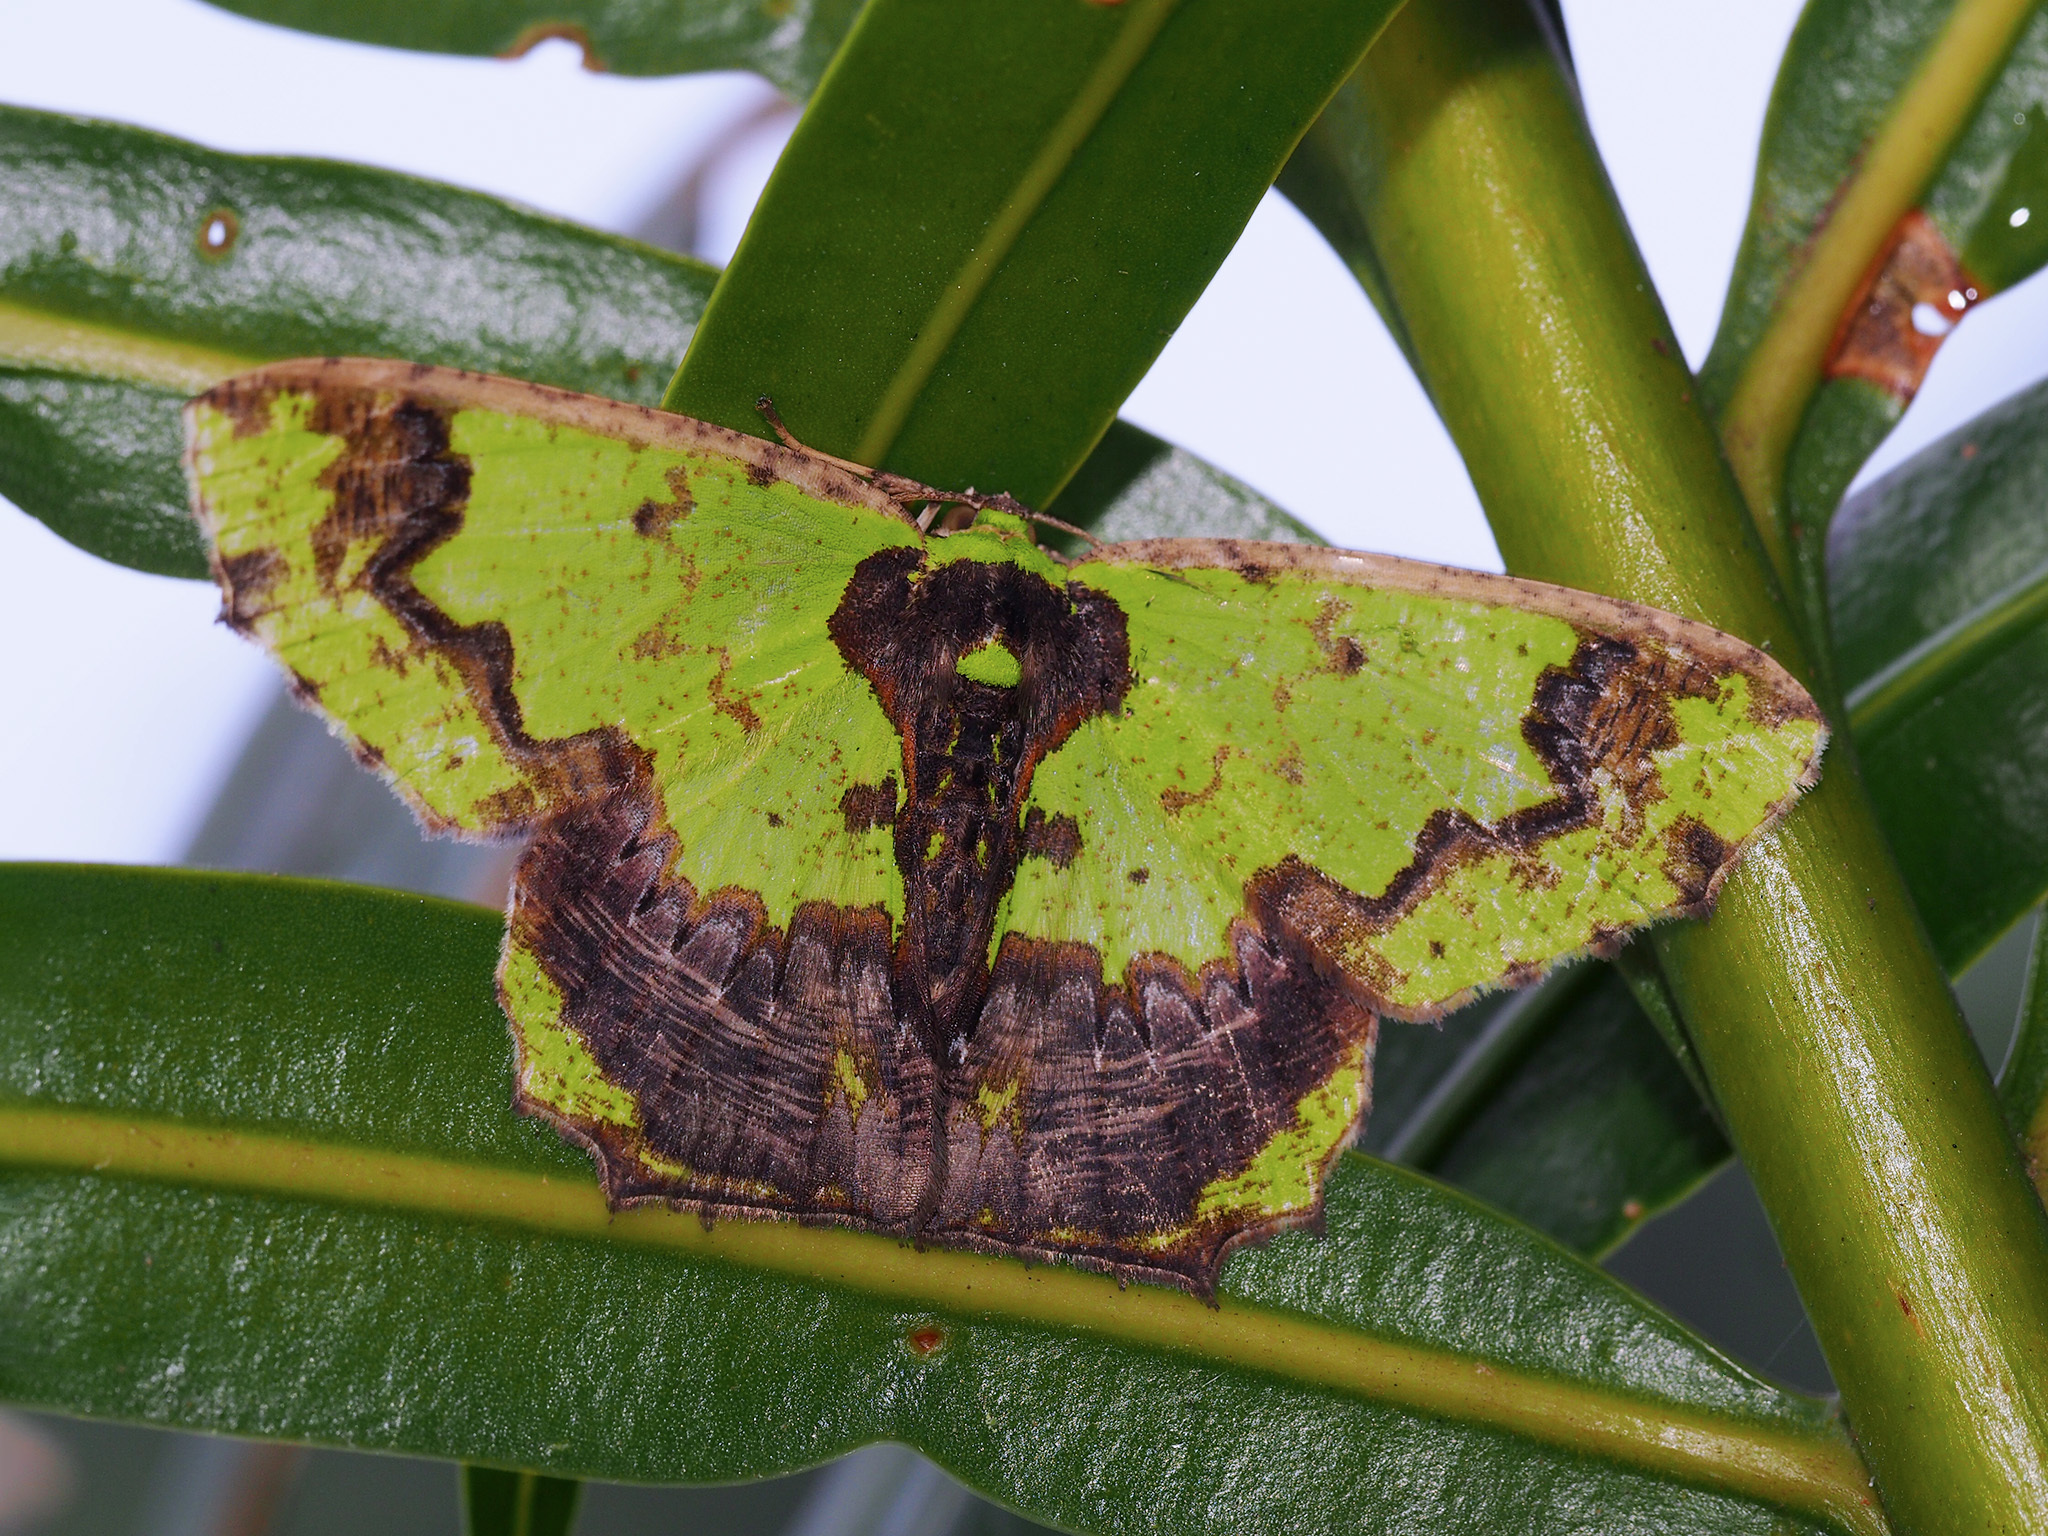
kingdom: Animalia
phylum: Arthropoda
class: Insecta
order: Lepidoptera
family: Geometridae
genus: Agathia
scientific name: Agathia gigantea
